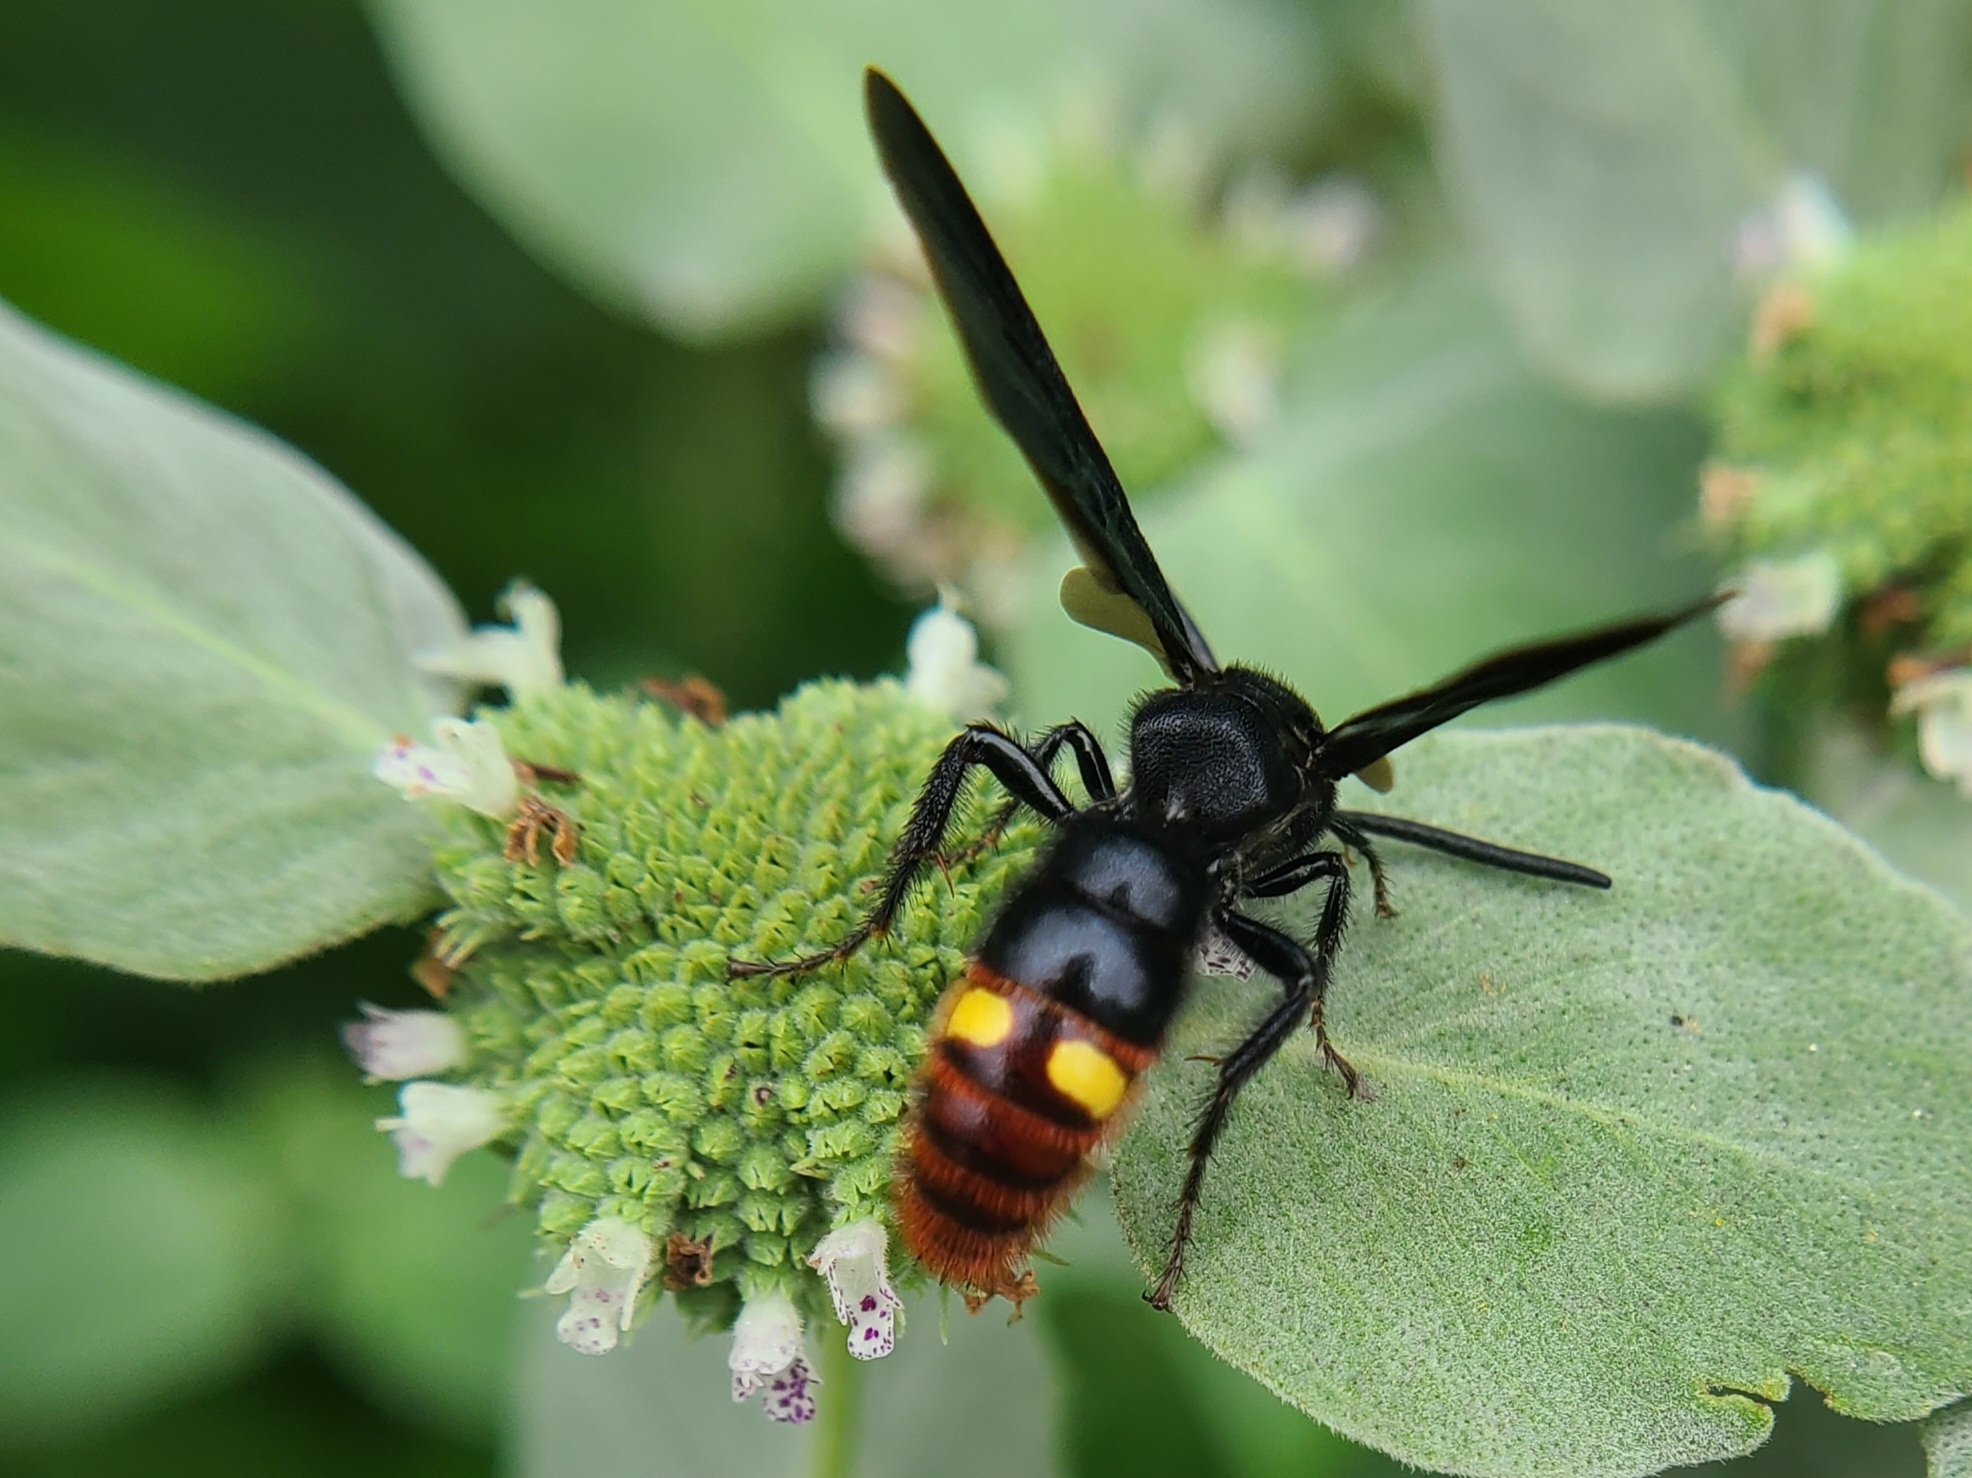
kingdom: Animalia
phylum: Arthropoda
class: Insecta
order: Hymenoptera
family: Scoliidae
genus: Scolia
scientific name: Scolia dubia
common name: Blue-winged scoliid wasp
